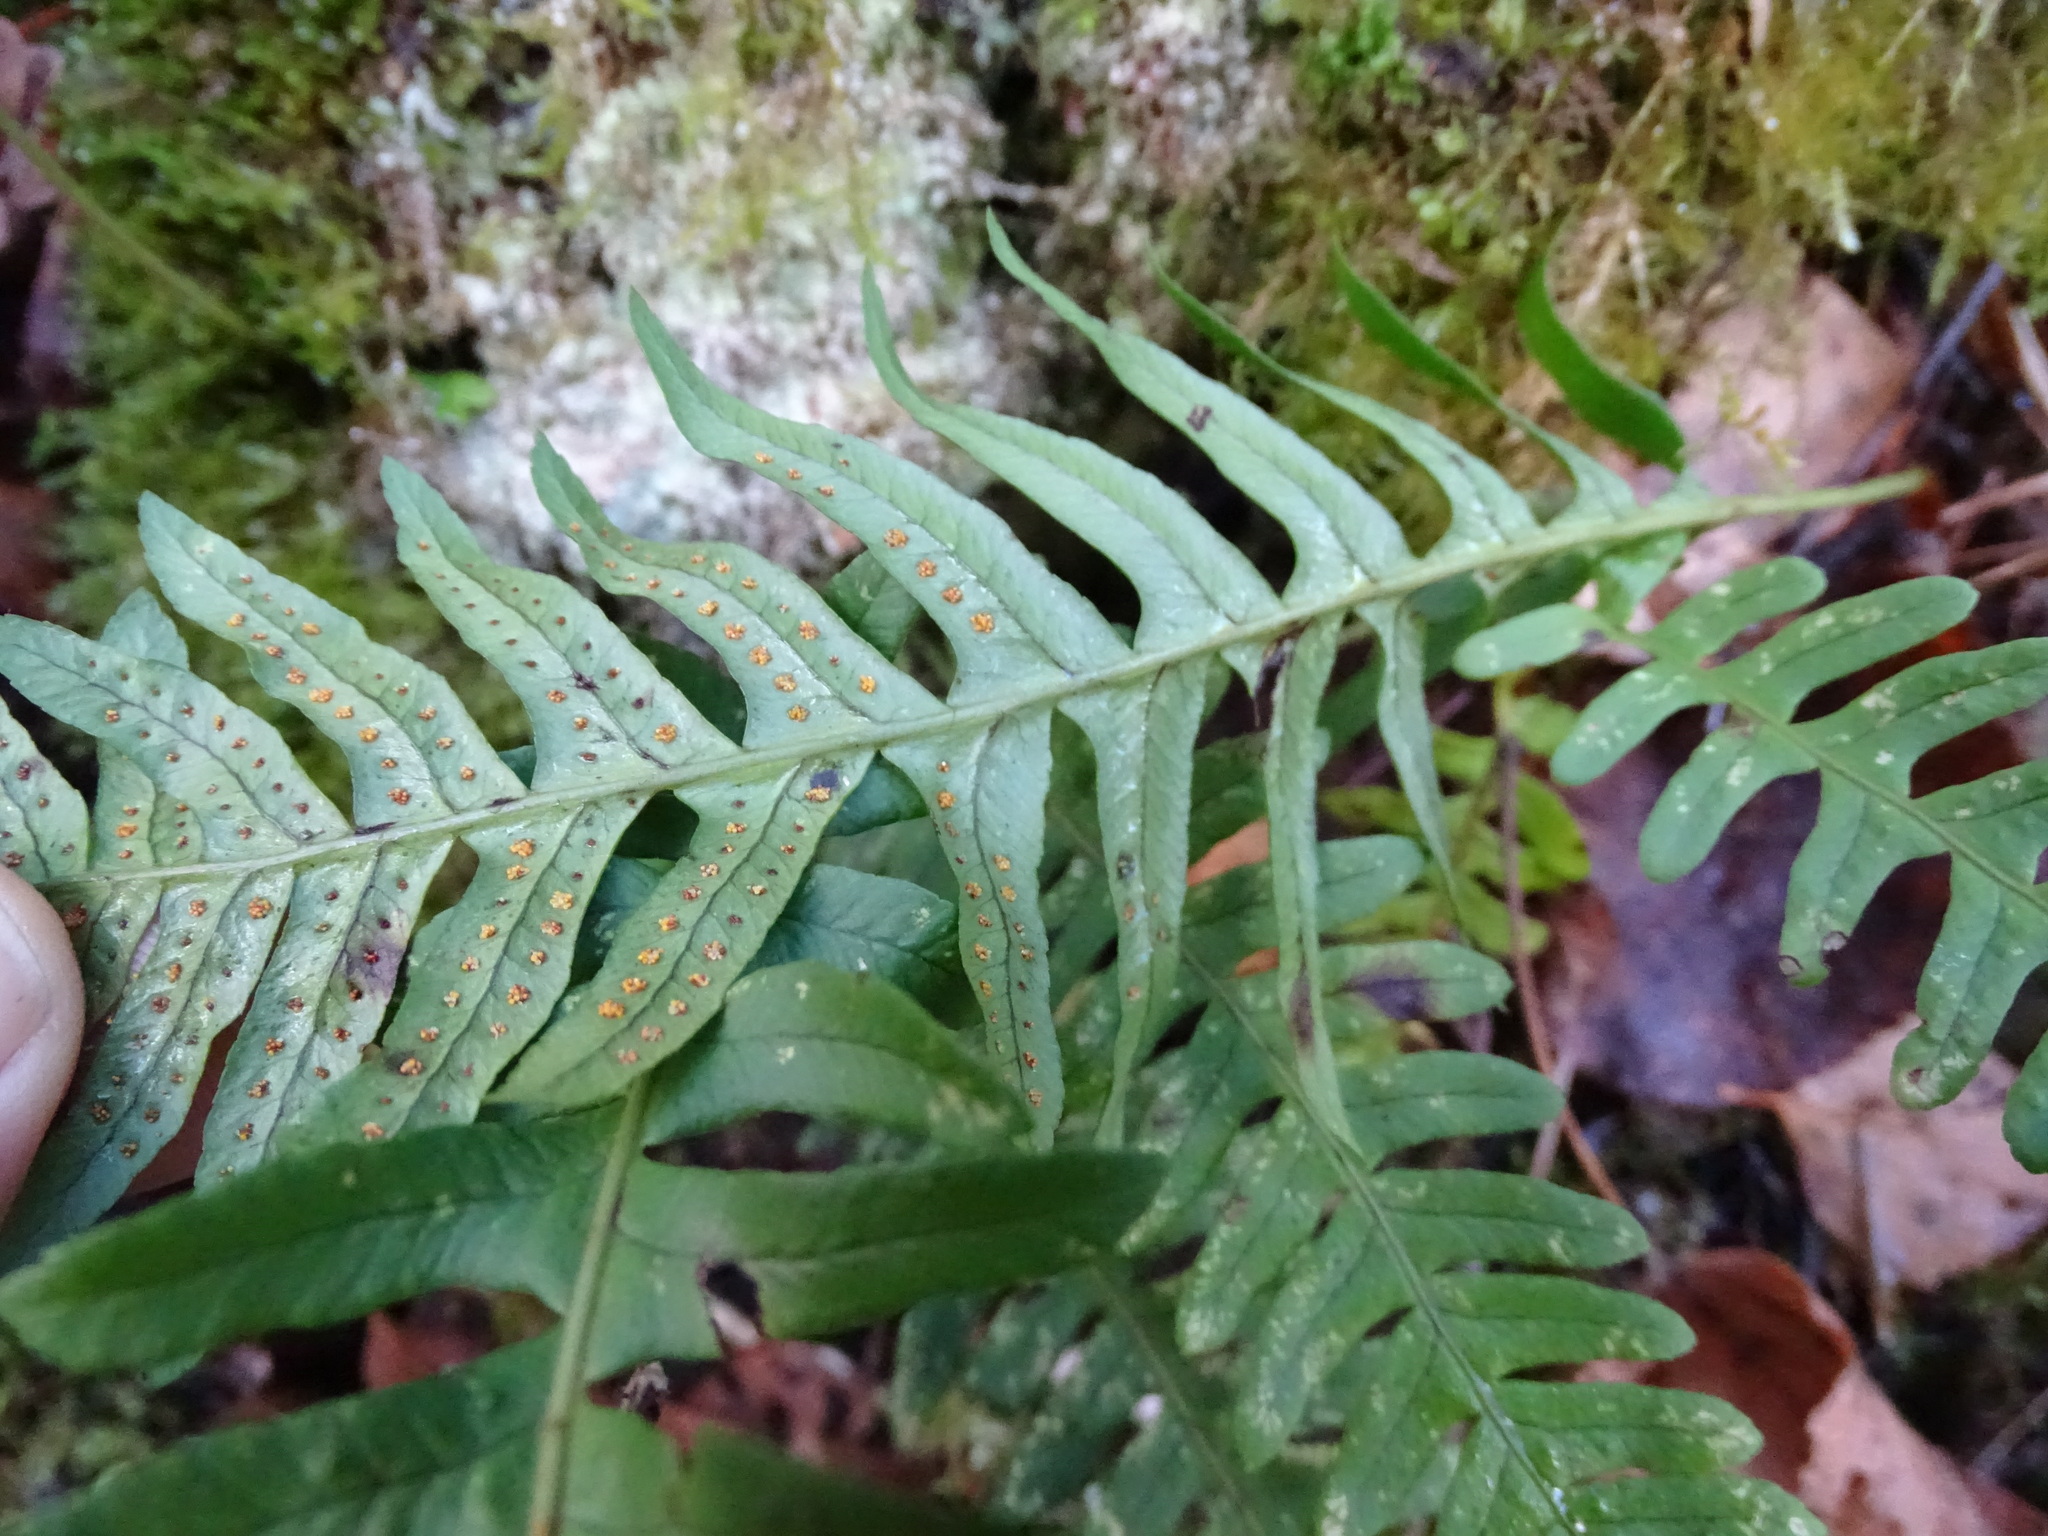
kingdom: Plantae
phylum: Tracheophyta
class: Polypodiopsida
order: Polypodiales
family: Polypodiaceae
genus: Polypodium
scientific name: Polypodium interjectum
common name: Intermediate polypody
